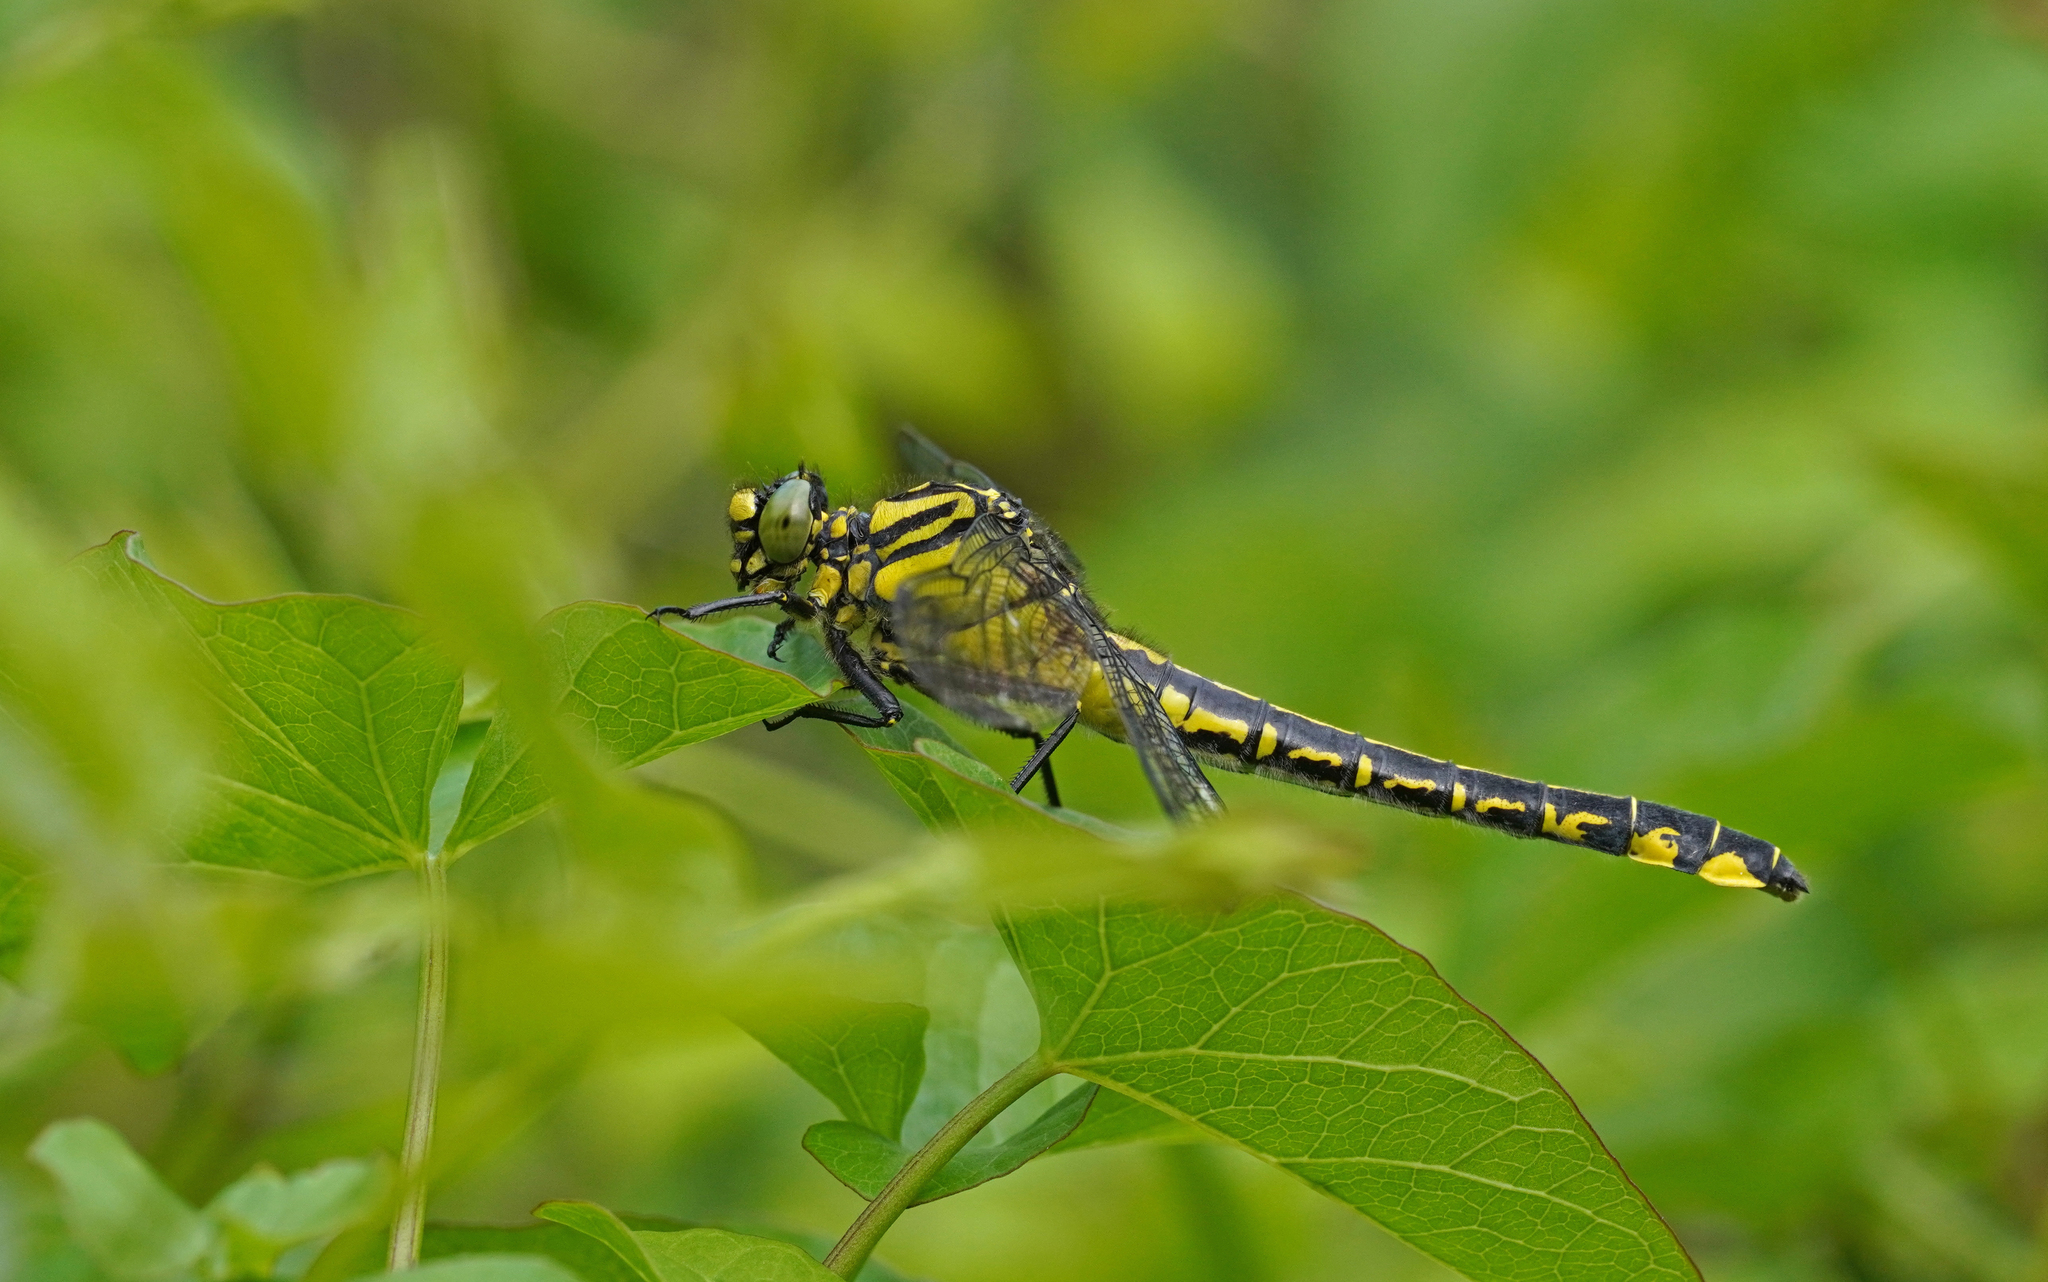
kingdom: Animalia
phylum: Arthropoda
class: Insecta
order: Odonata
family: Gomphidae
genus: Gomphus
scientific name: Gomphus vulgatissimus
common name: Club-tailed dragonfly
